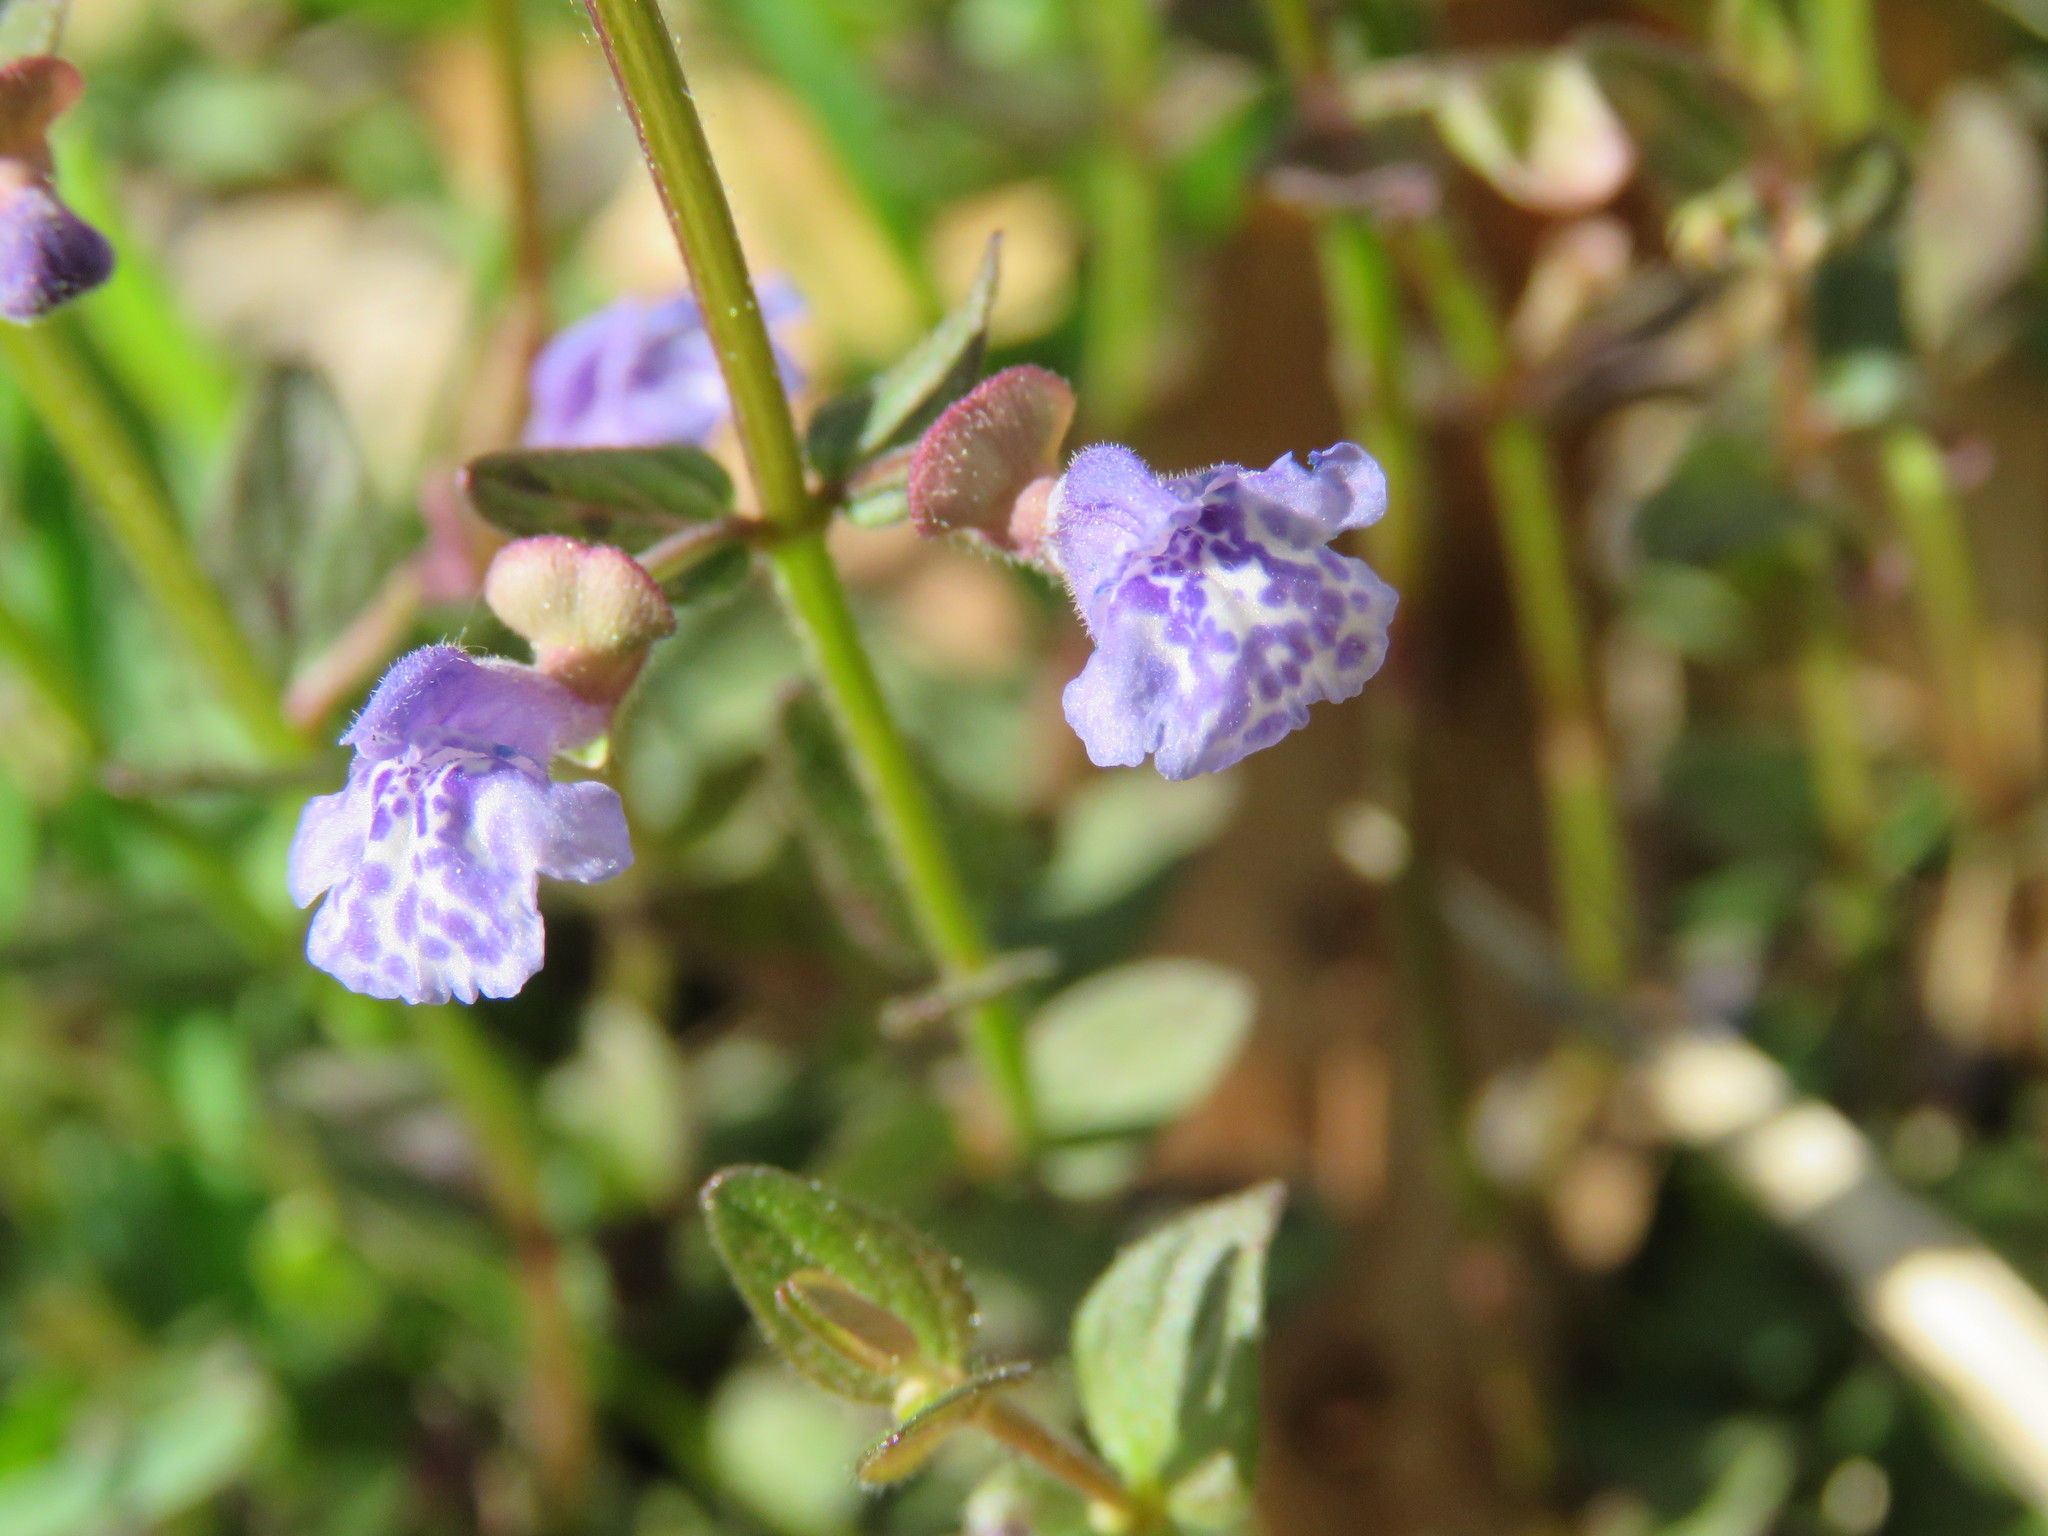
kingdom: Plantae
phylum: Tracheophyta
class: Magnoliopsida
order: Lamiales
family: Lamiaceae
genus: Scutellaria
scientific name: Scutellaria parvula
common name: Little scullcap
